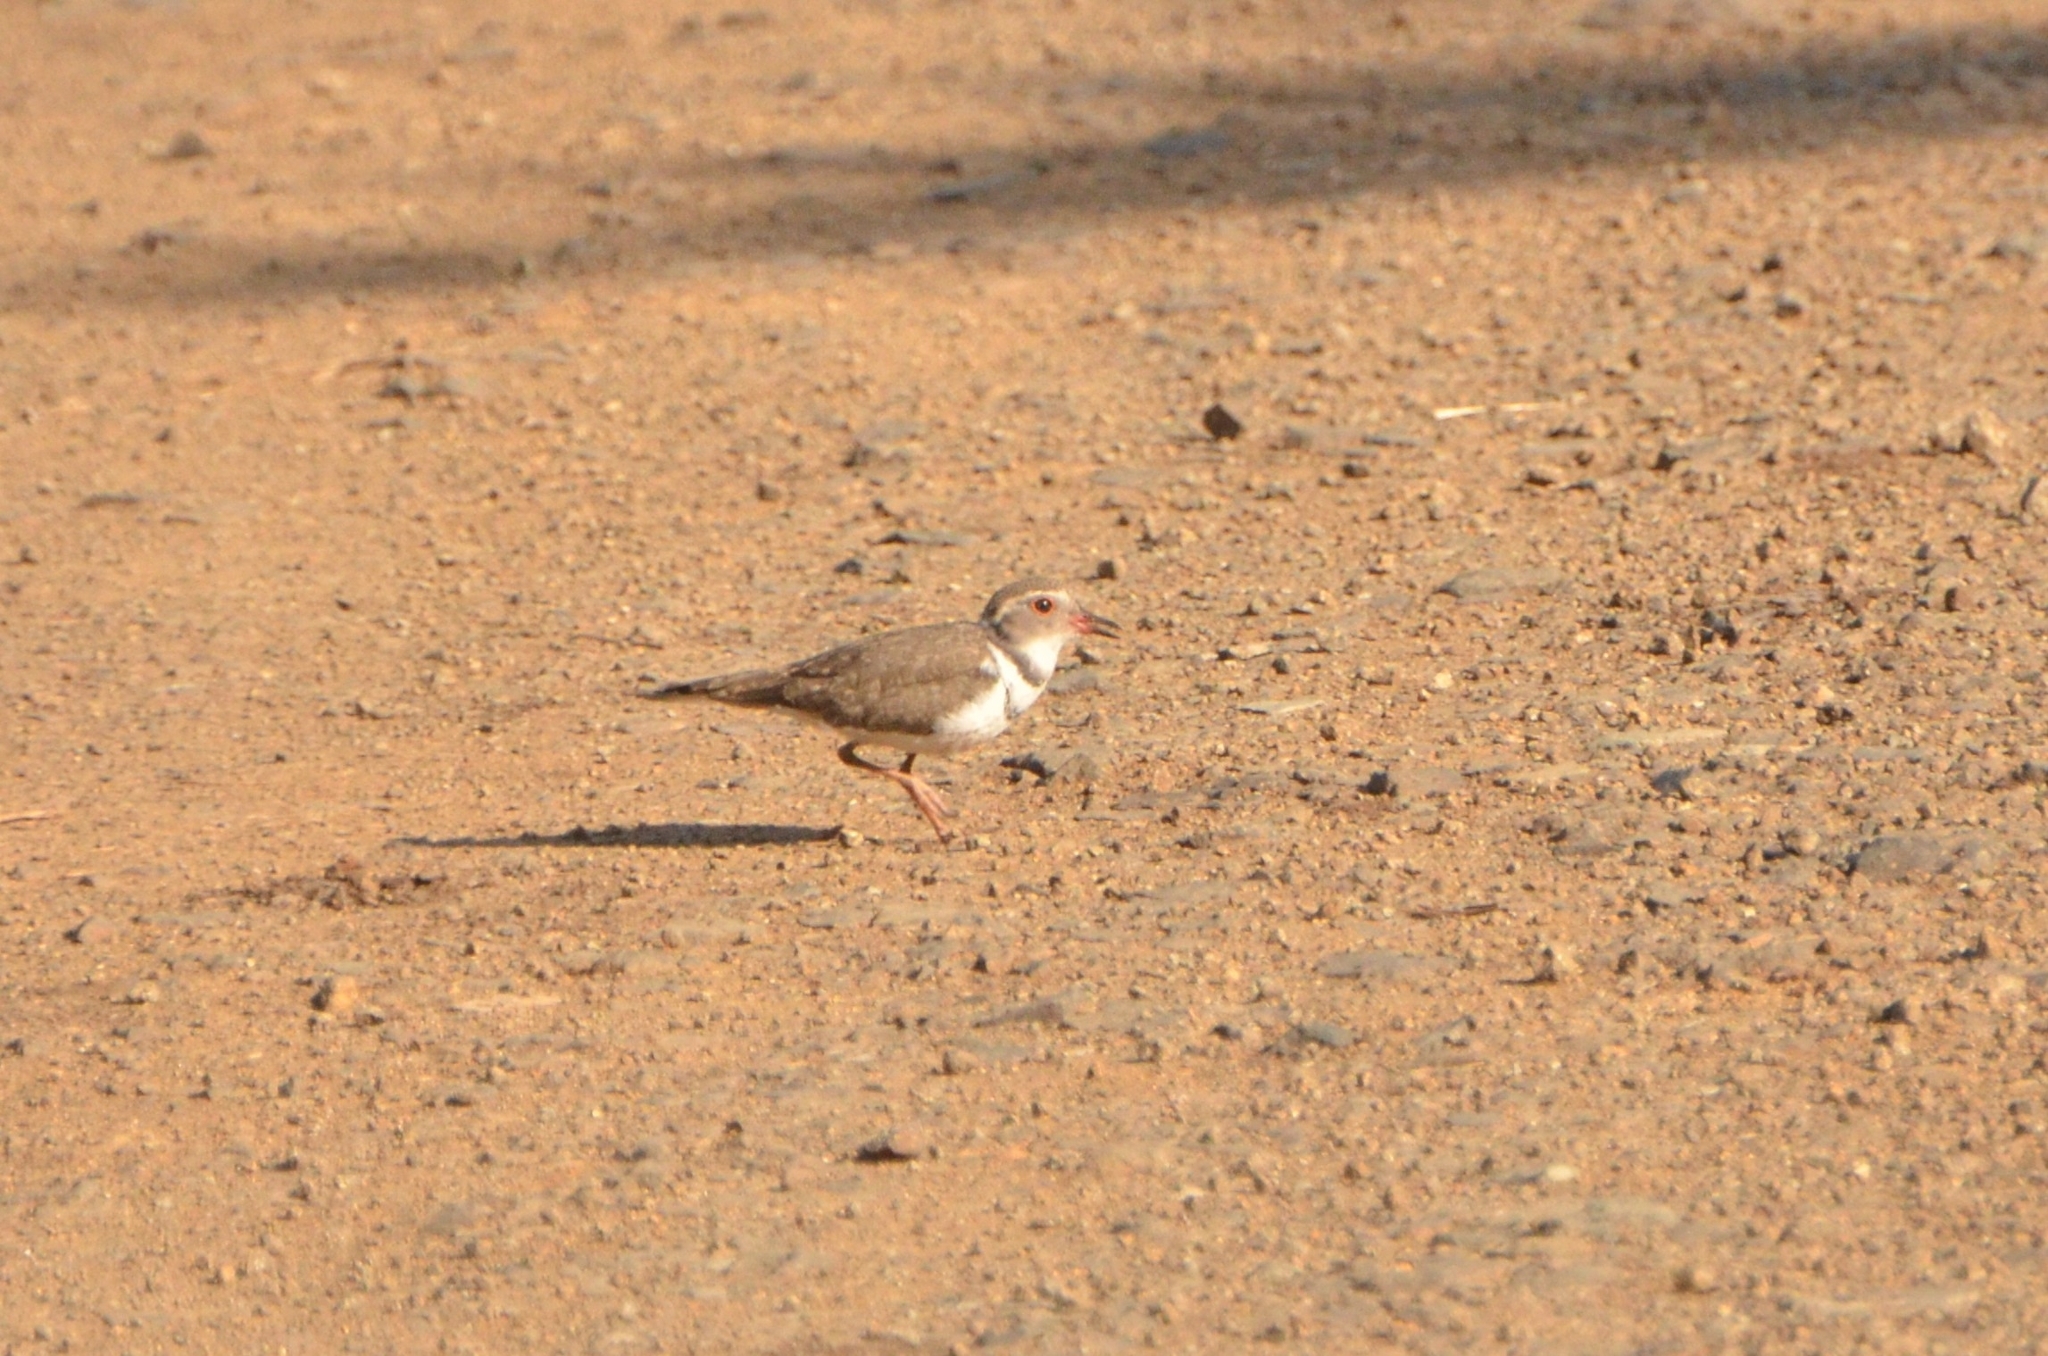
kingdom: Animalia
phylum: Chordata
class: Aves
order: Charadriiformes
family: Charadriidae
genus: Charadrius
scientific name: Charadrius tricollaris
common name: Three-banded plover
